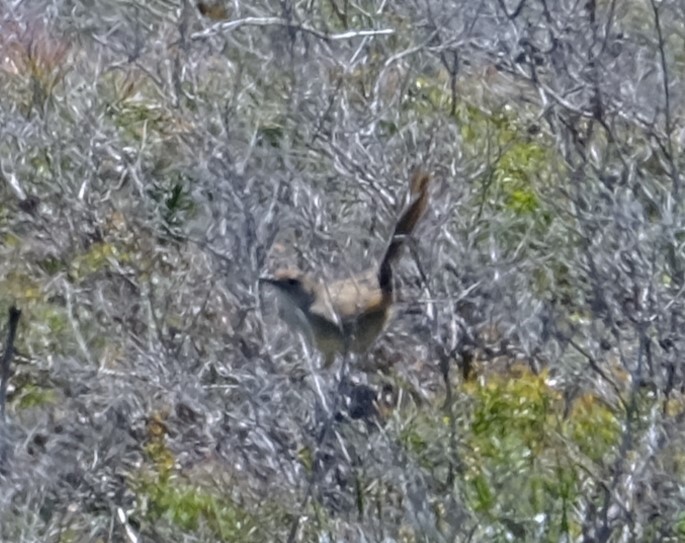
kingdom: Animalia
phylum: Chordata
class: Aves
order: Passeriformes
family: Locustellidae
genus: Megalurus
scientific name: Megalurus timoriensis
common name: Tawny grassbird
